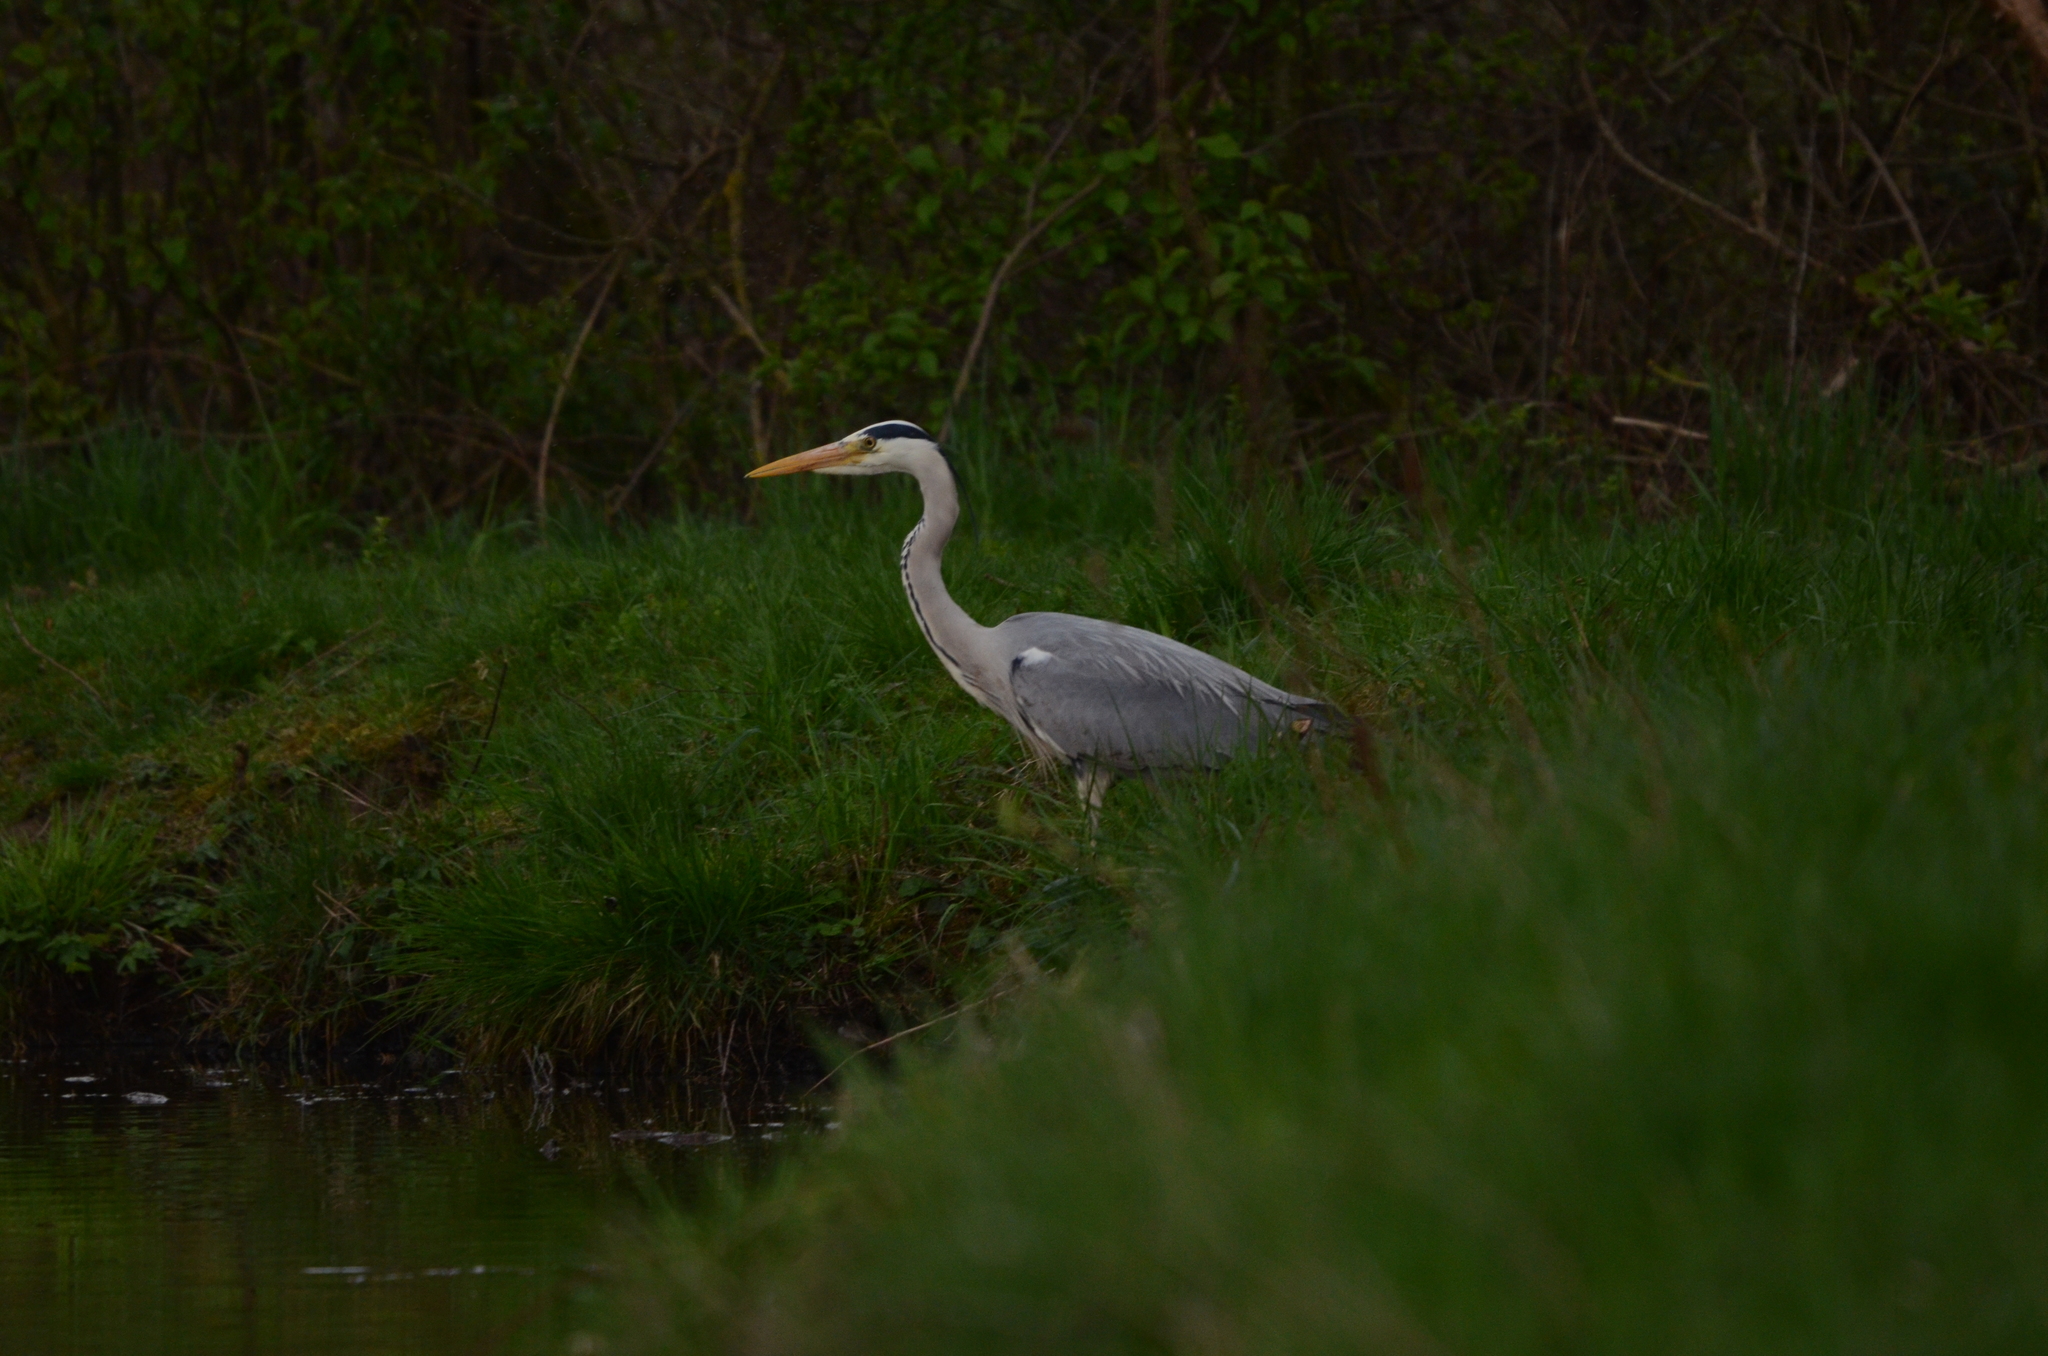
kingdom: Animalia
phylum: Chordata
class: Aves
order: Pelecaniformes
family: Ardeidae
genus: Ardea
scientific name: Ardea cinerea
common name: Grey heron
